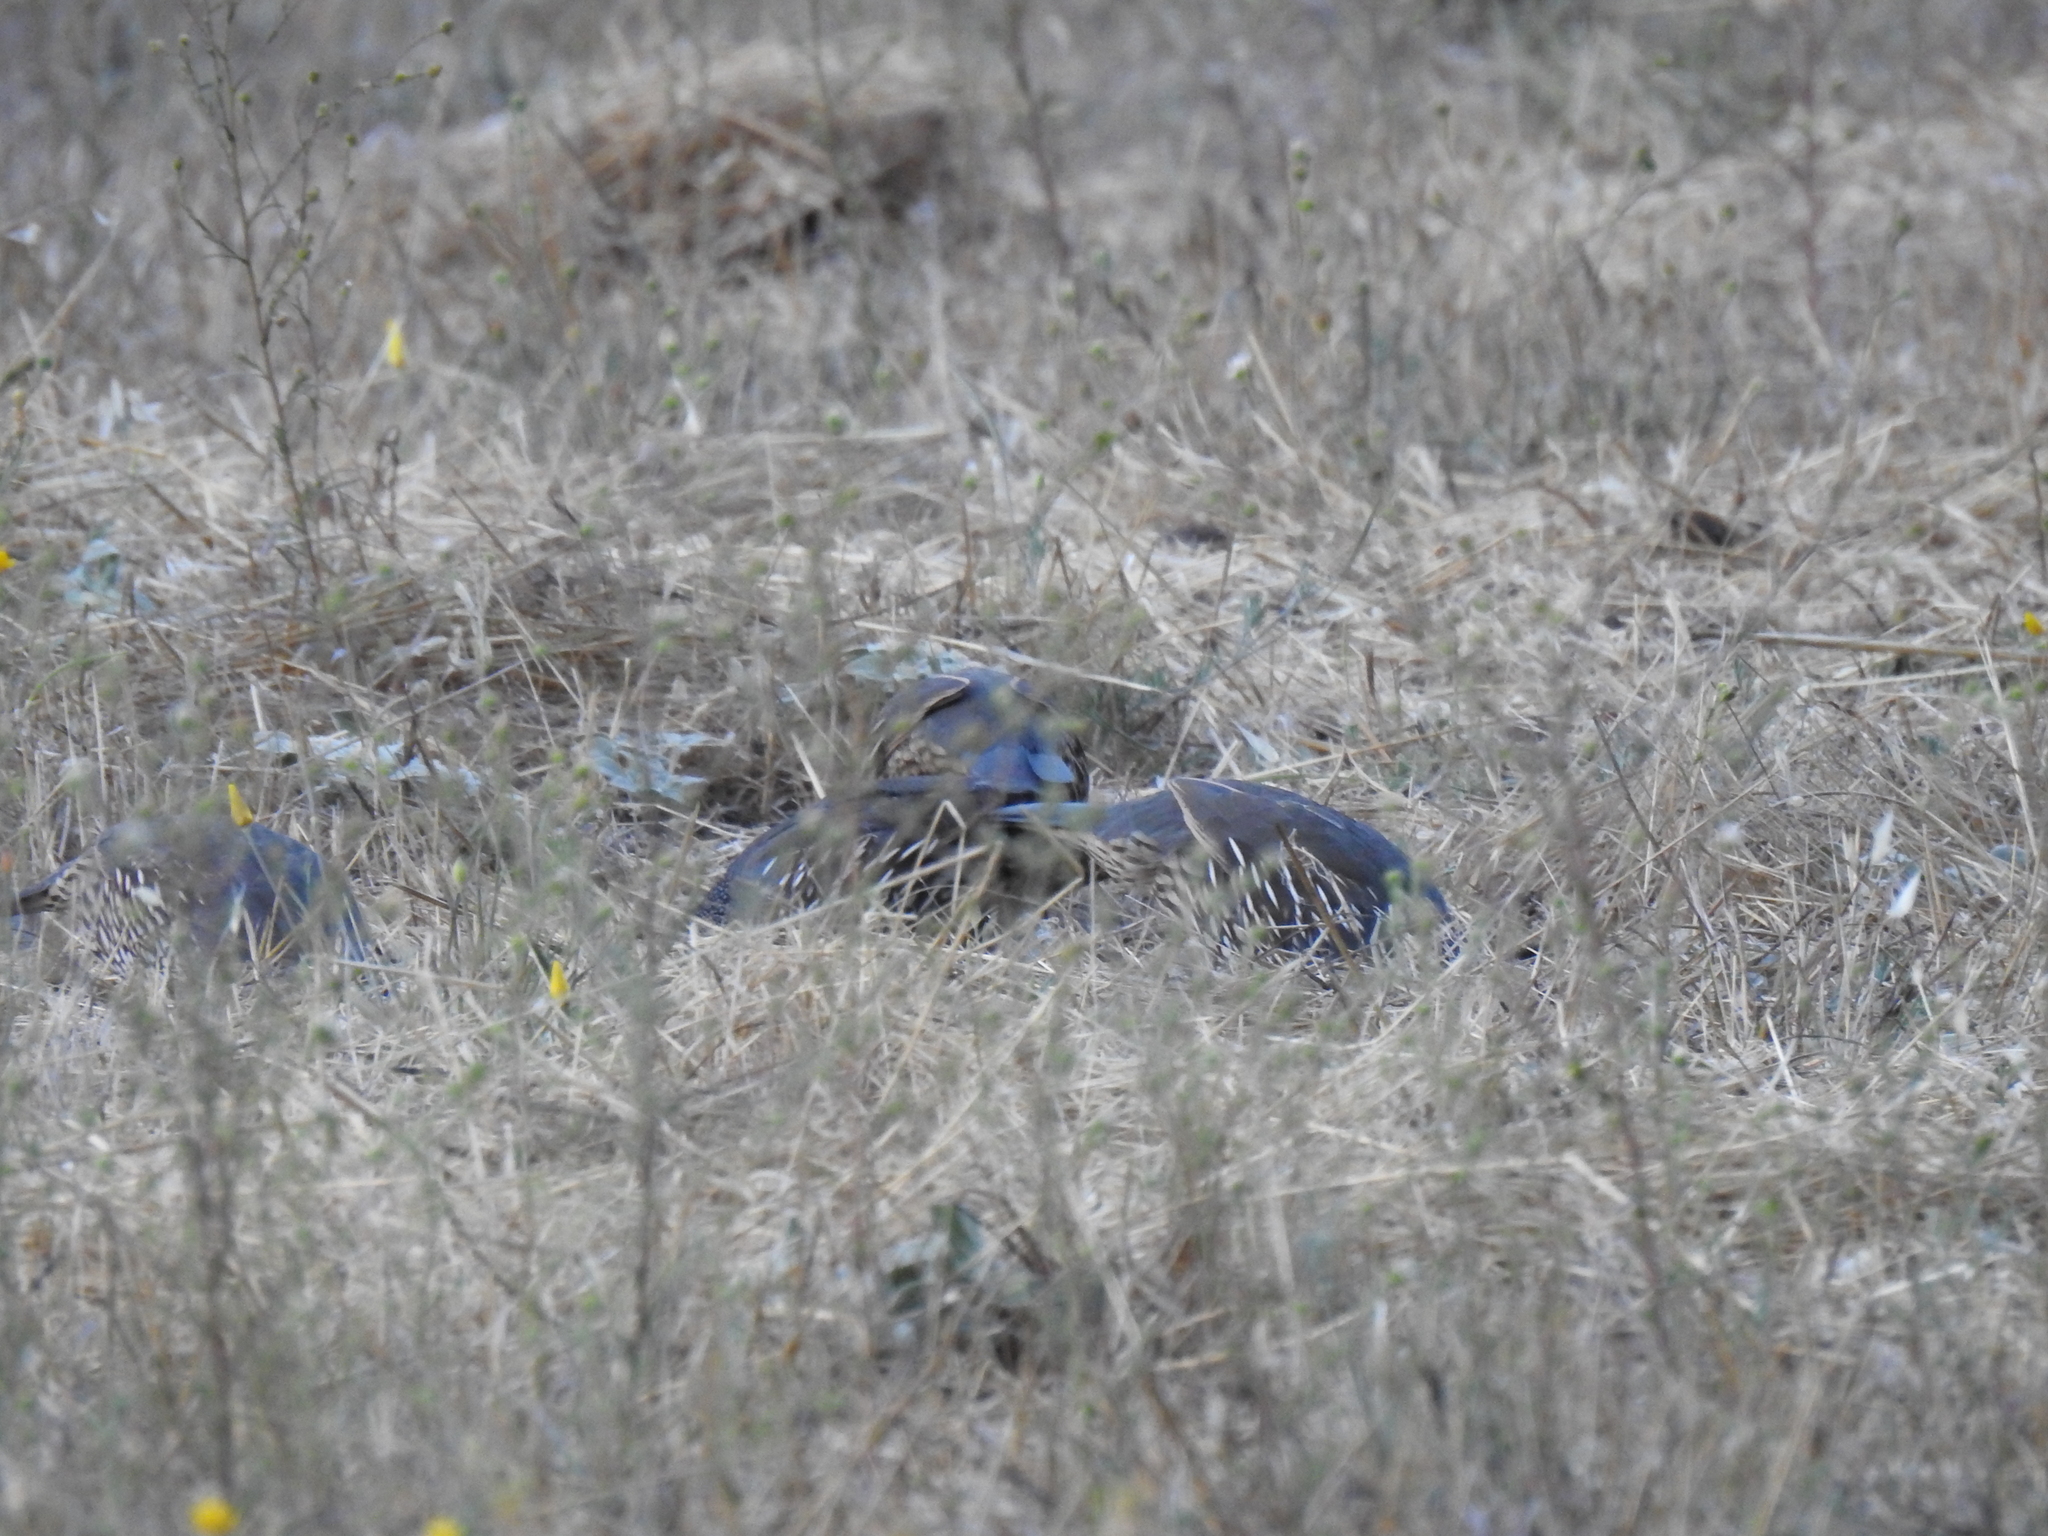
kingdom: Animalia
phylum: Chordata
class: Aves
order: Galliformes
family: Odontophoridae
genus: Callipepla
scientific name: Callipepla californica
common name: California quail
